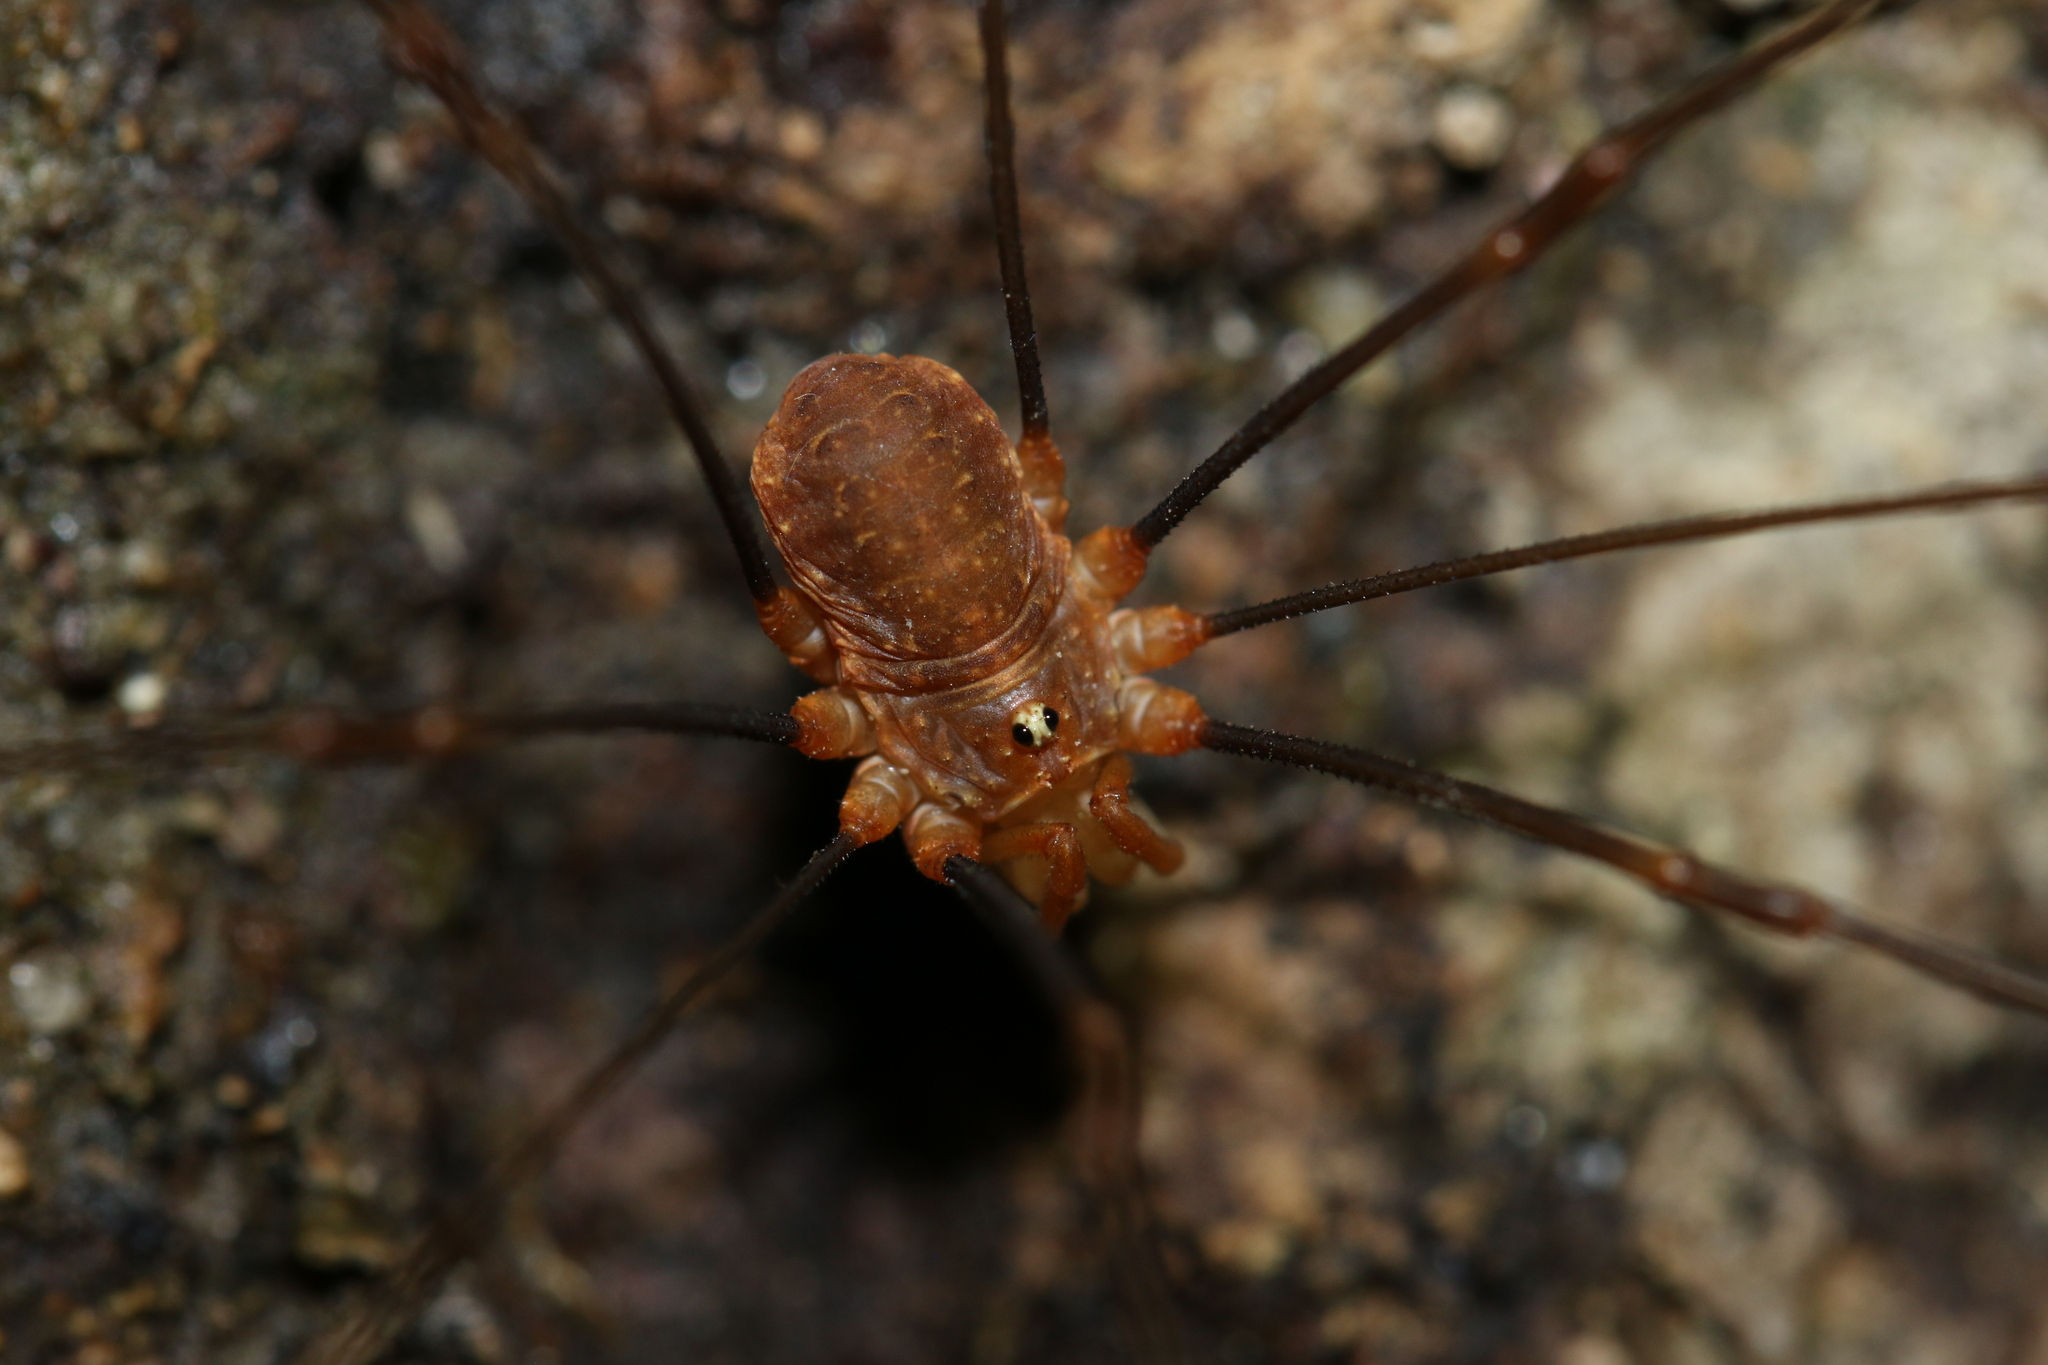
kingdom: Animalia
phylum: Arthropoda
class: Arachnida
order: Opiliones
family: Phalangiidae
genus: Opilio
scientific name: Opilio canestrinii
